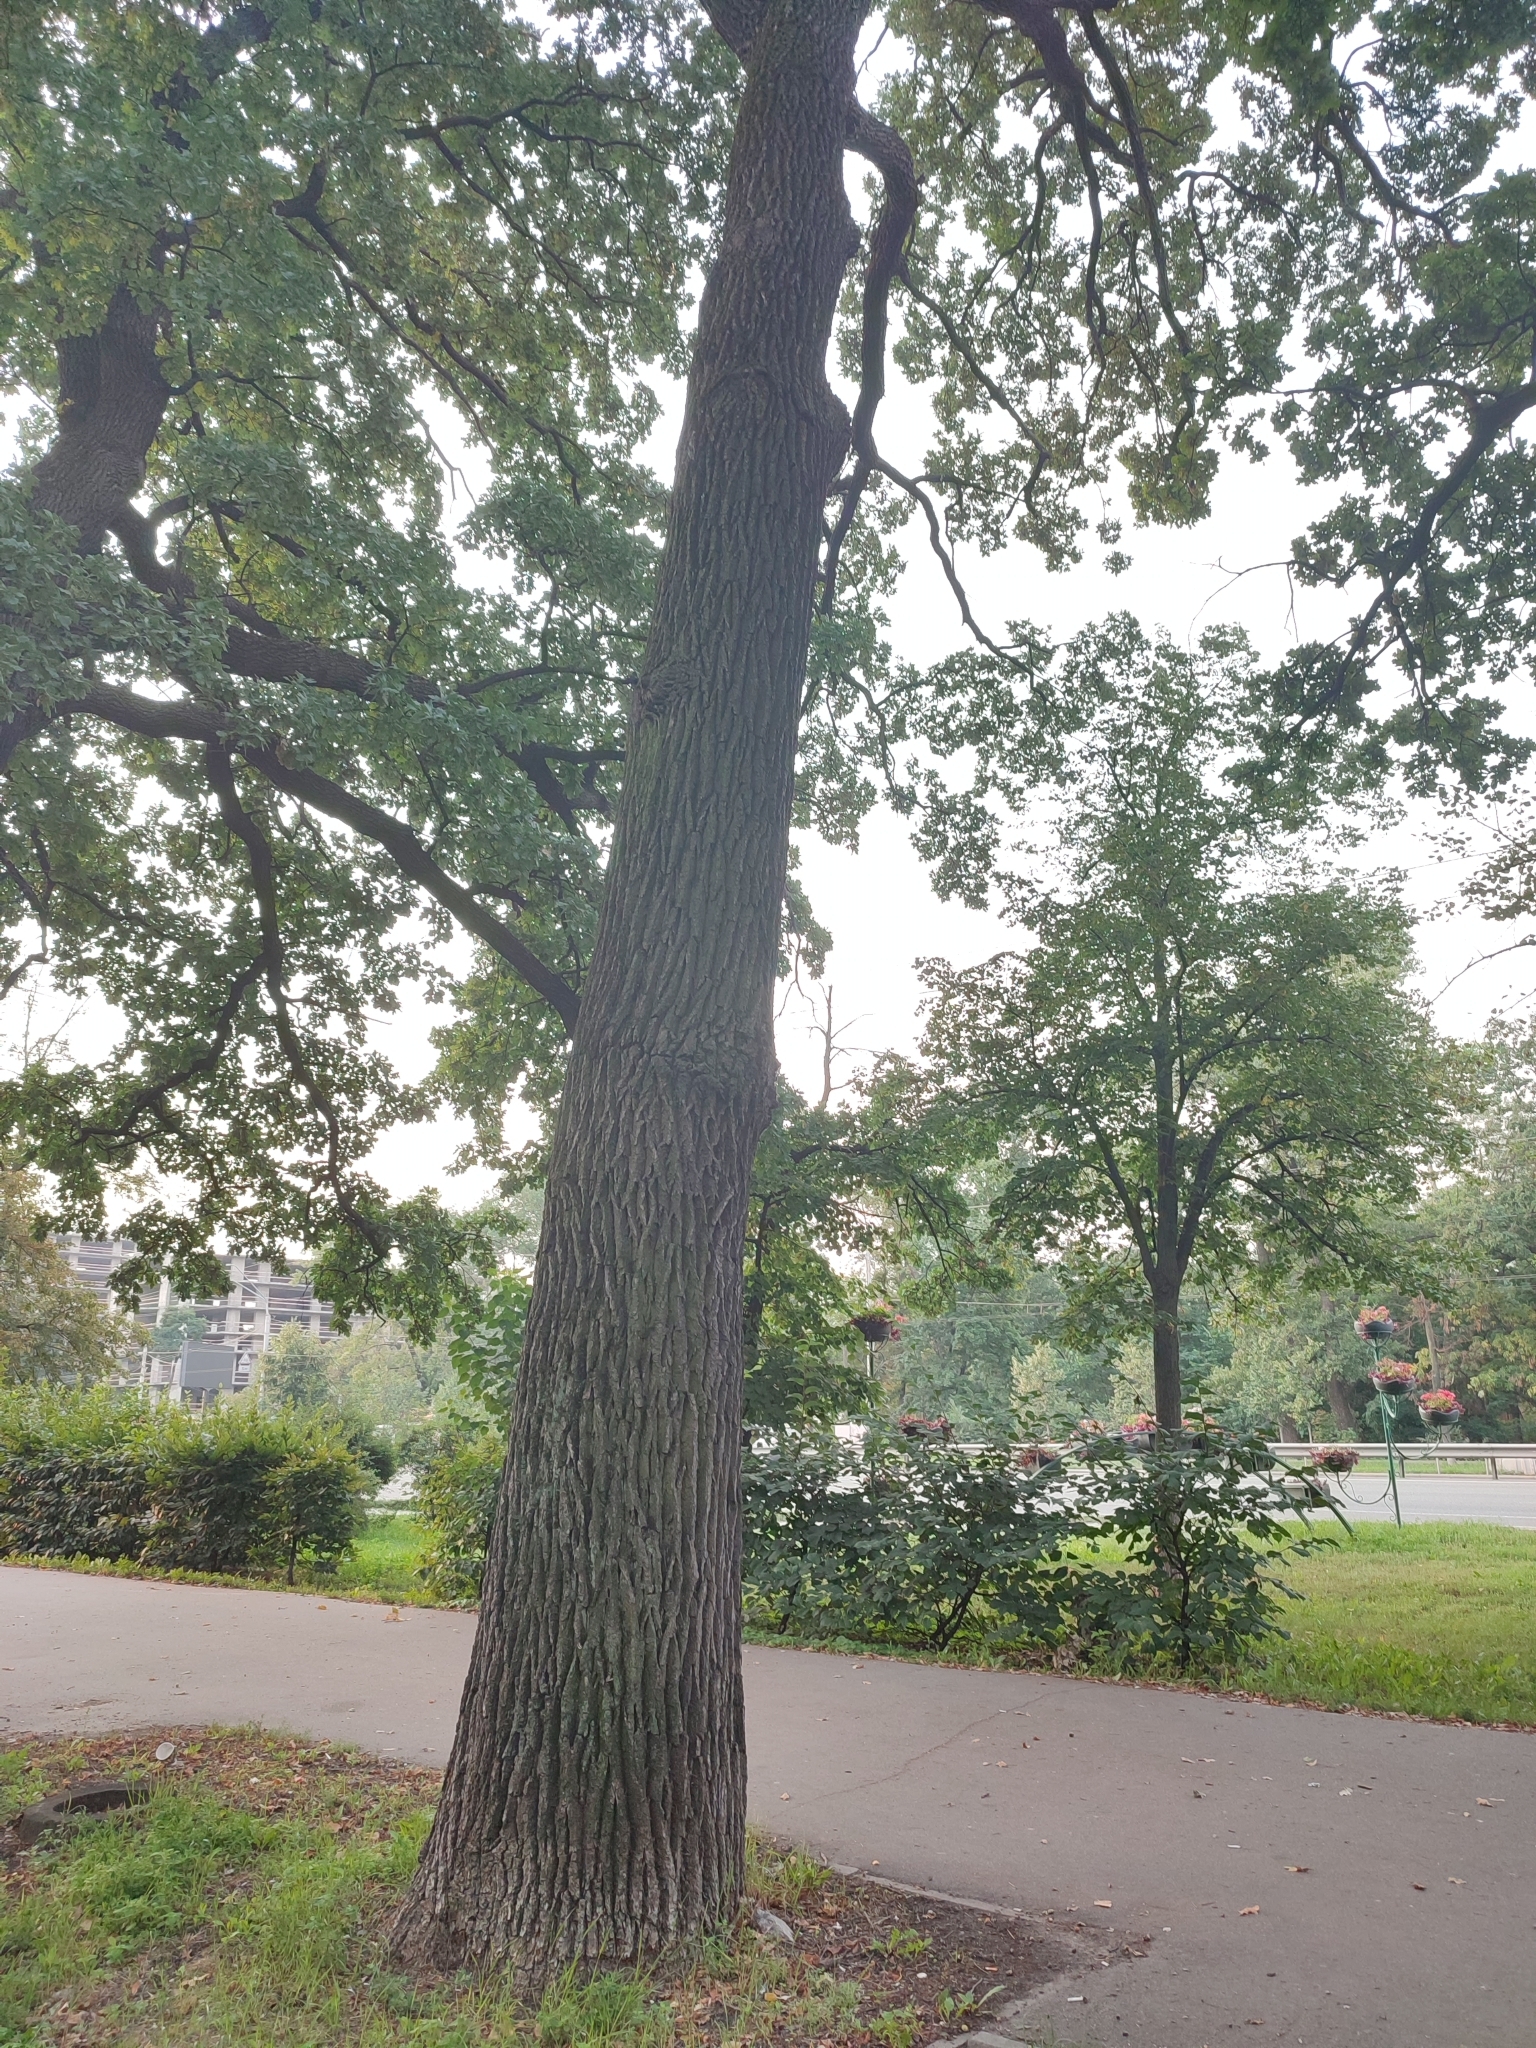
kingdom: Plantae
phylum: Tracheophyta
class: Magnoliopsida
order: Fagales
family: Fagaceae
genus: Quercus
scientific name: Quercus robur
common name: Pedunculate oak
